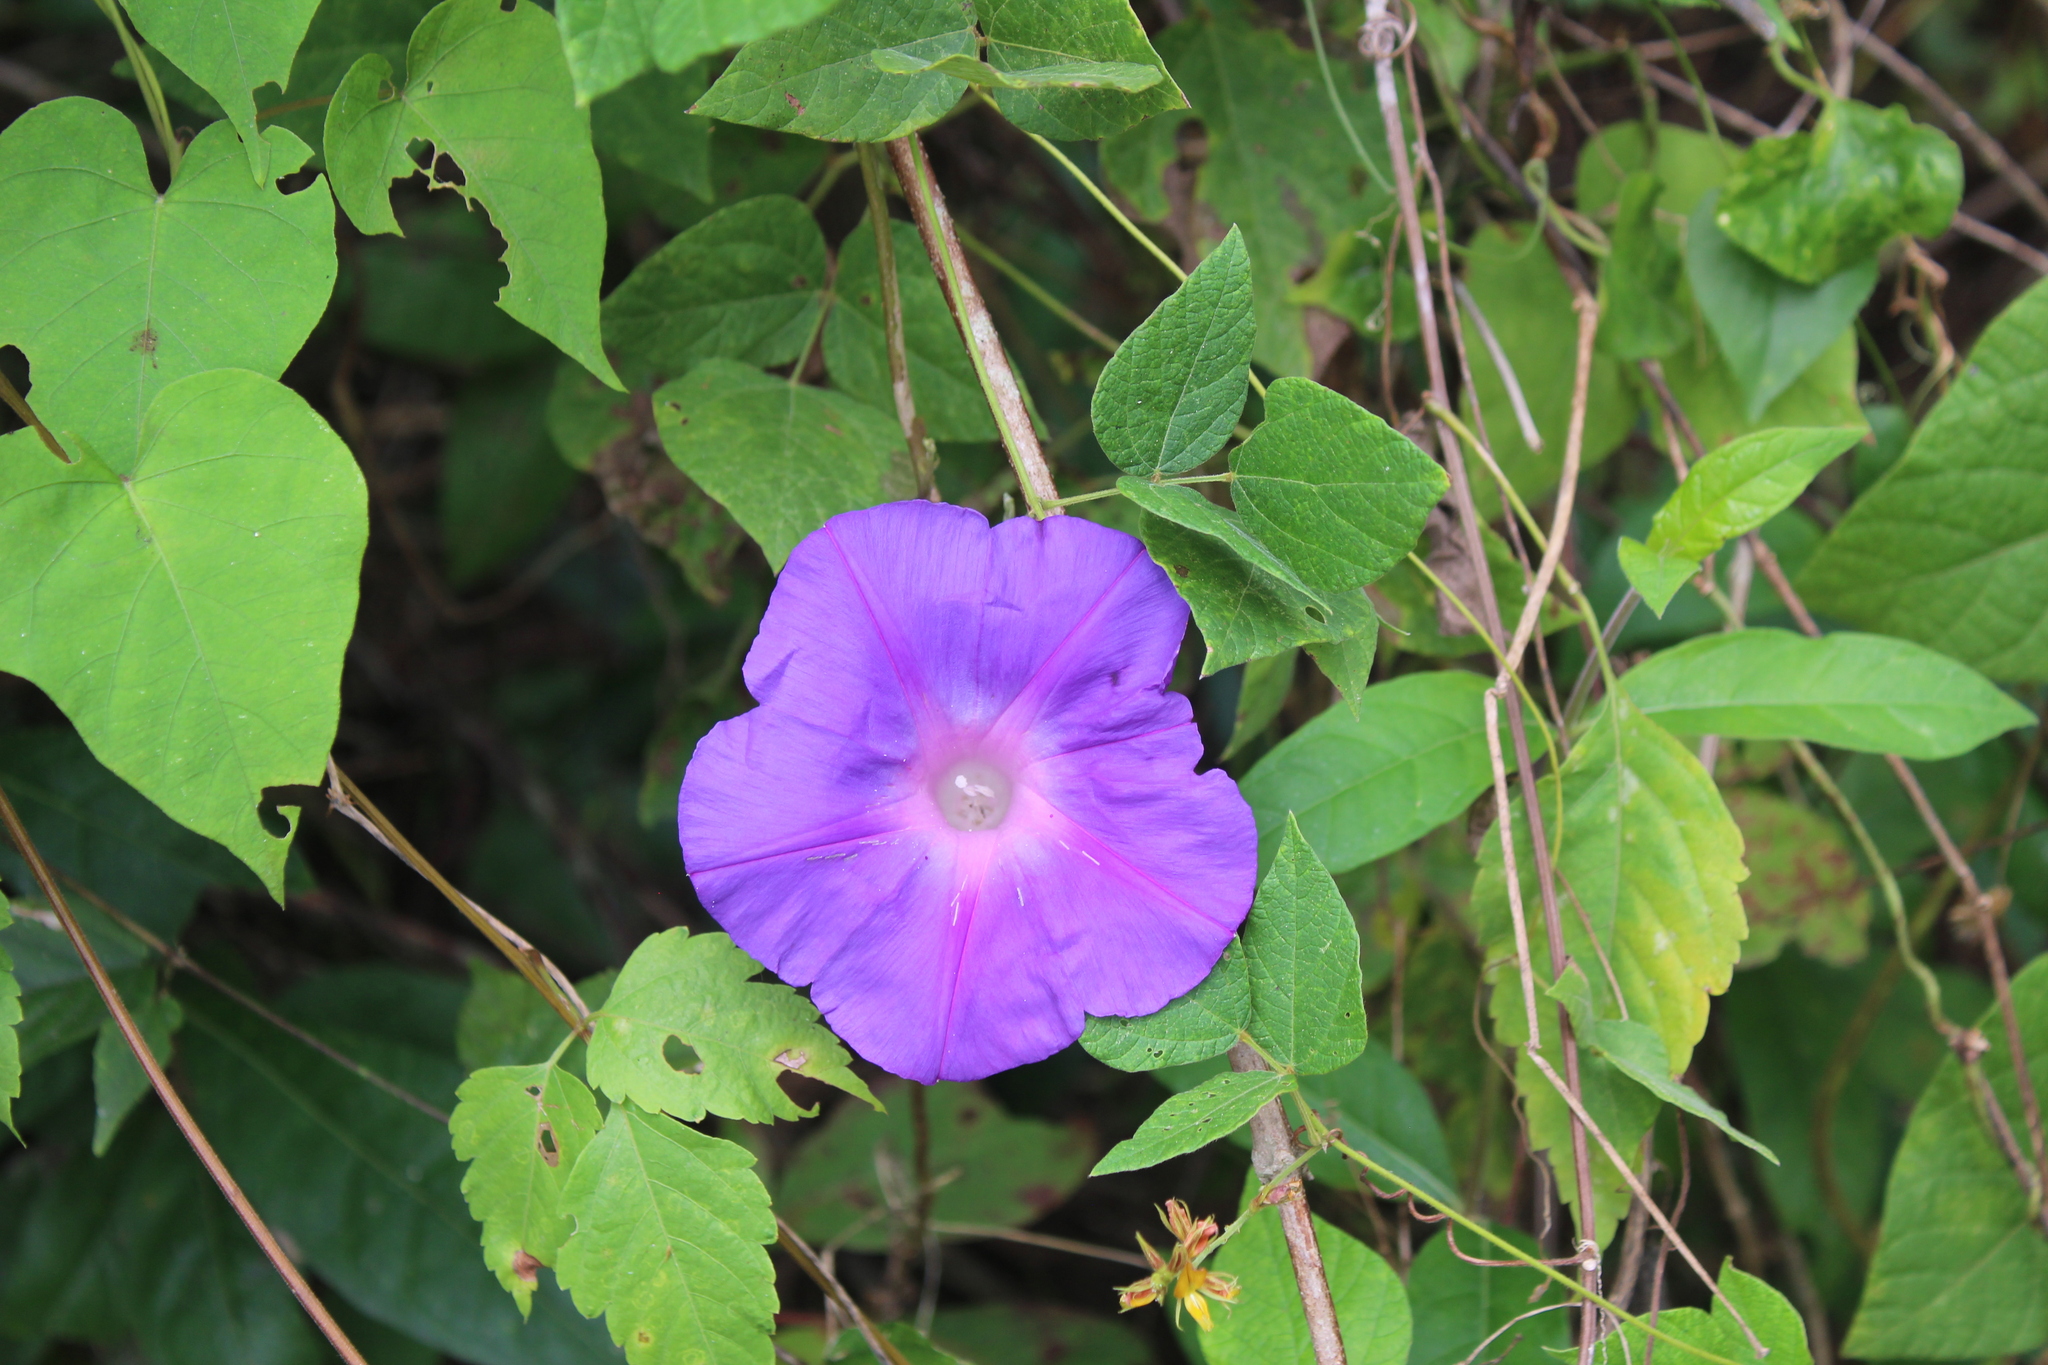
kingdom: Plantae
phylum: Tracheophyta
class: Magnoliopsida
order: Solanales
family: Convolvulaceae
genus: Ipomoea
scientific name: Ipomoea indica
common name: Blue dawnflower
